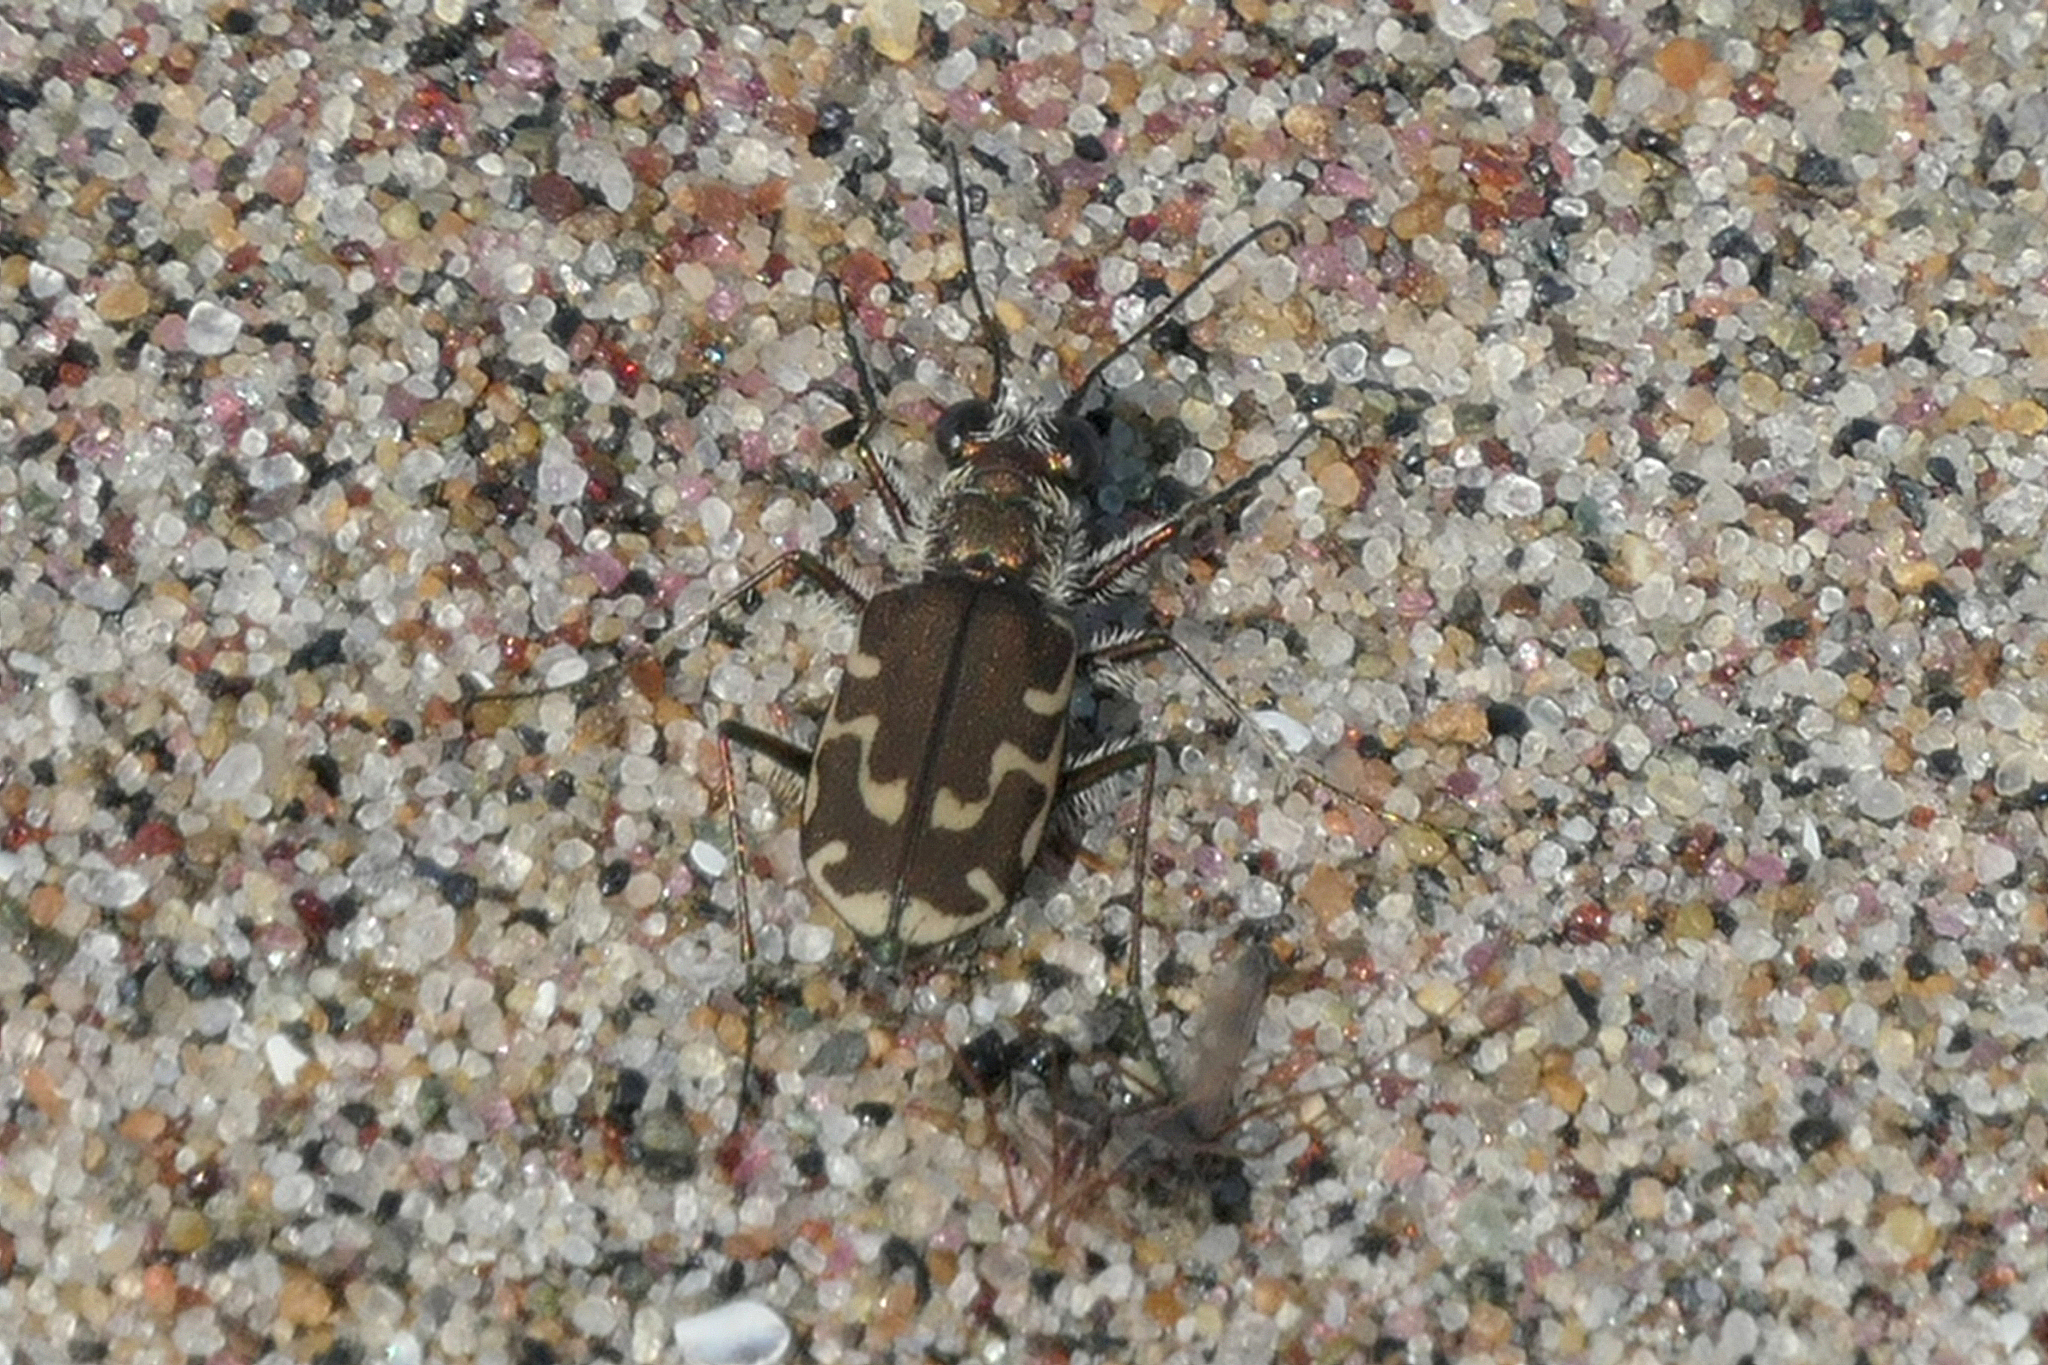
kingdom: Animalia
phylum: Arthropoda
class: Insecta
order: Coleoptera
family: Carabidae
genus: Cicindela
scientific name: Cicindela repanda
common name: Bronzed tiger beetle
